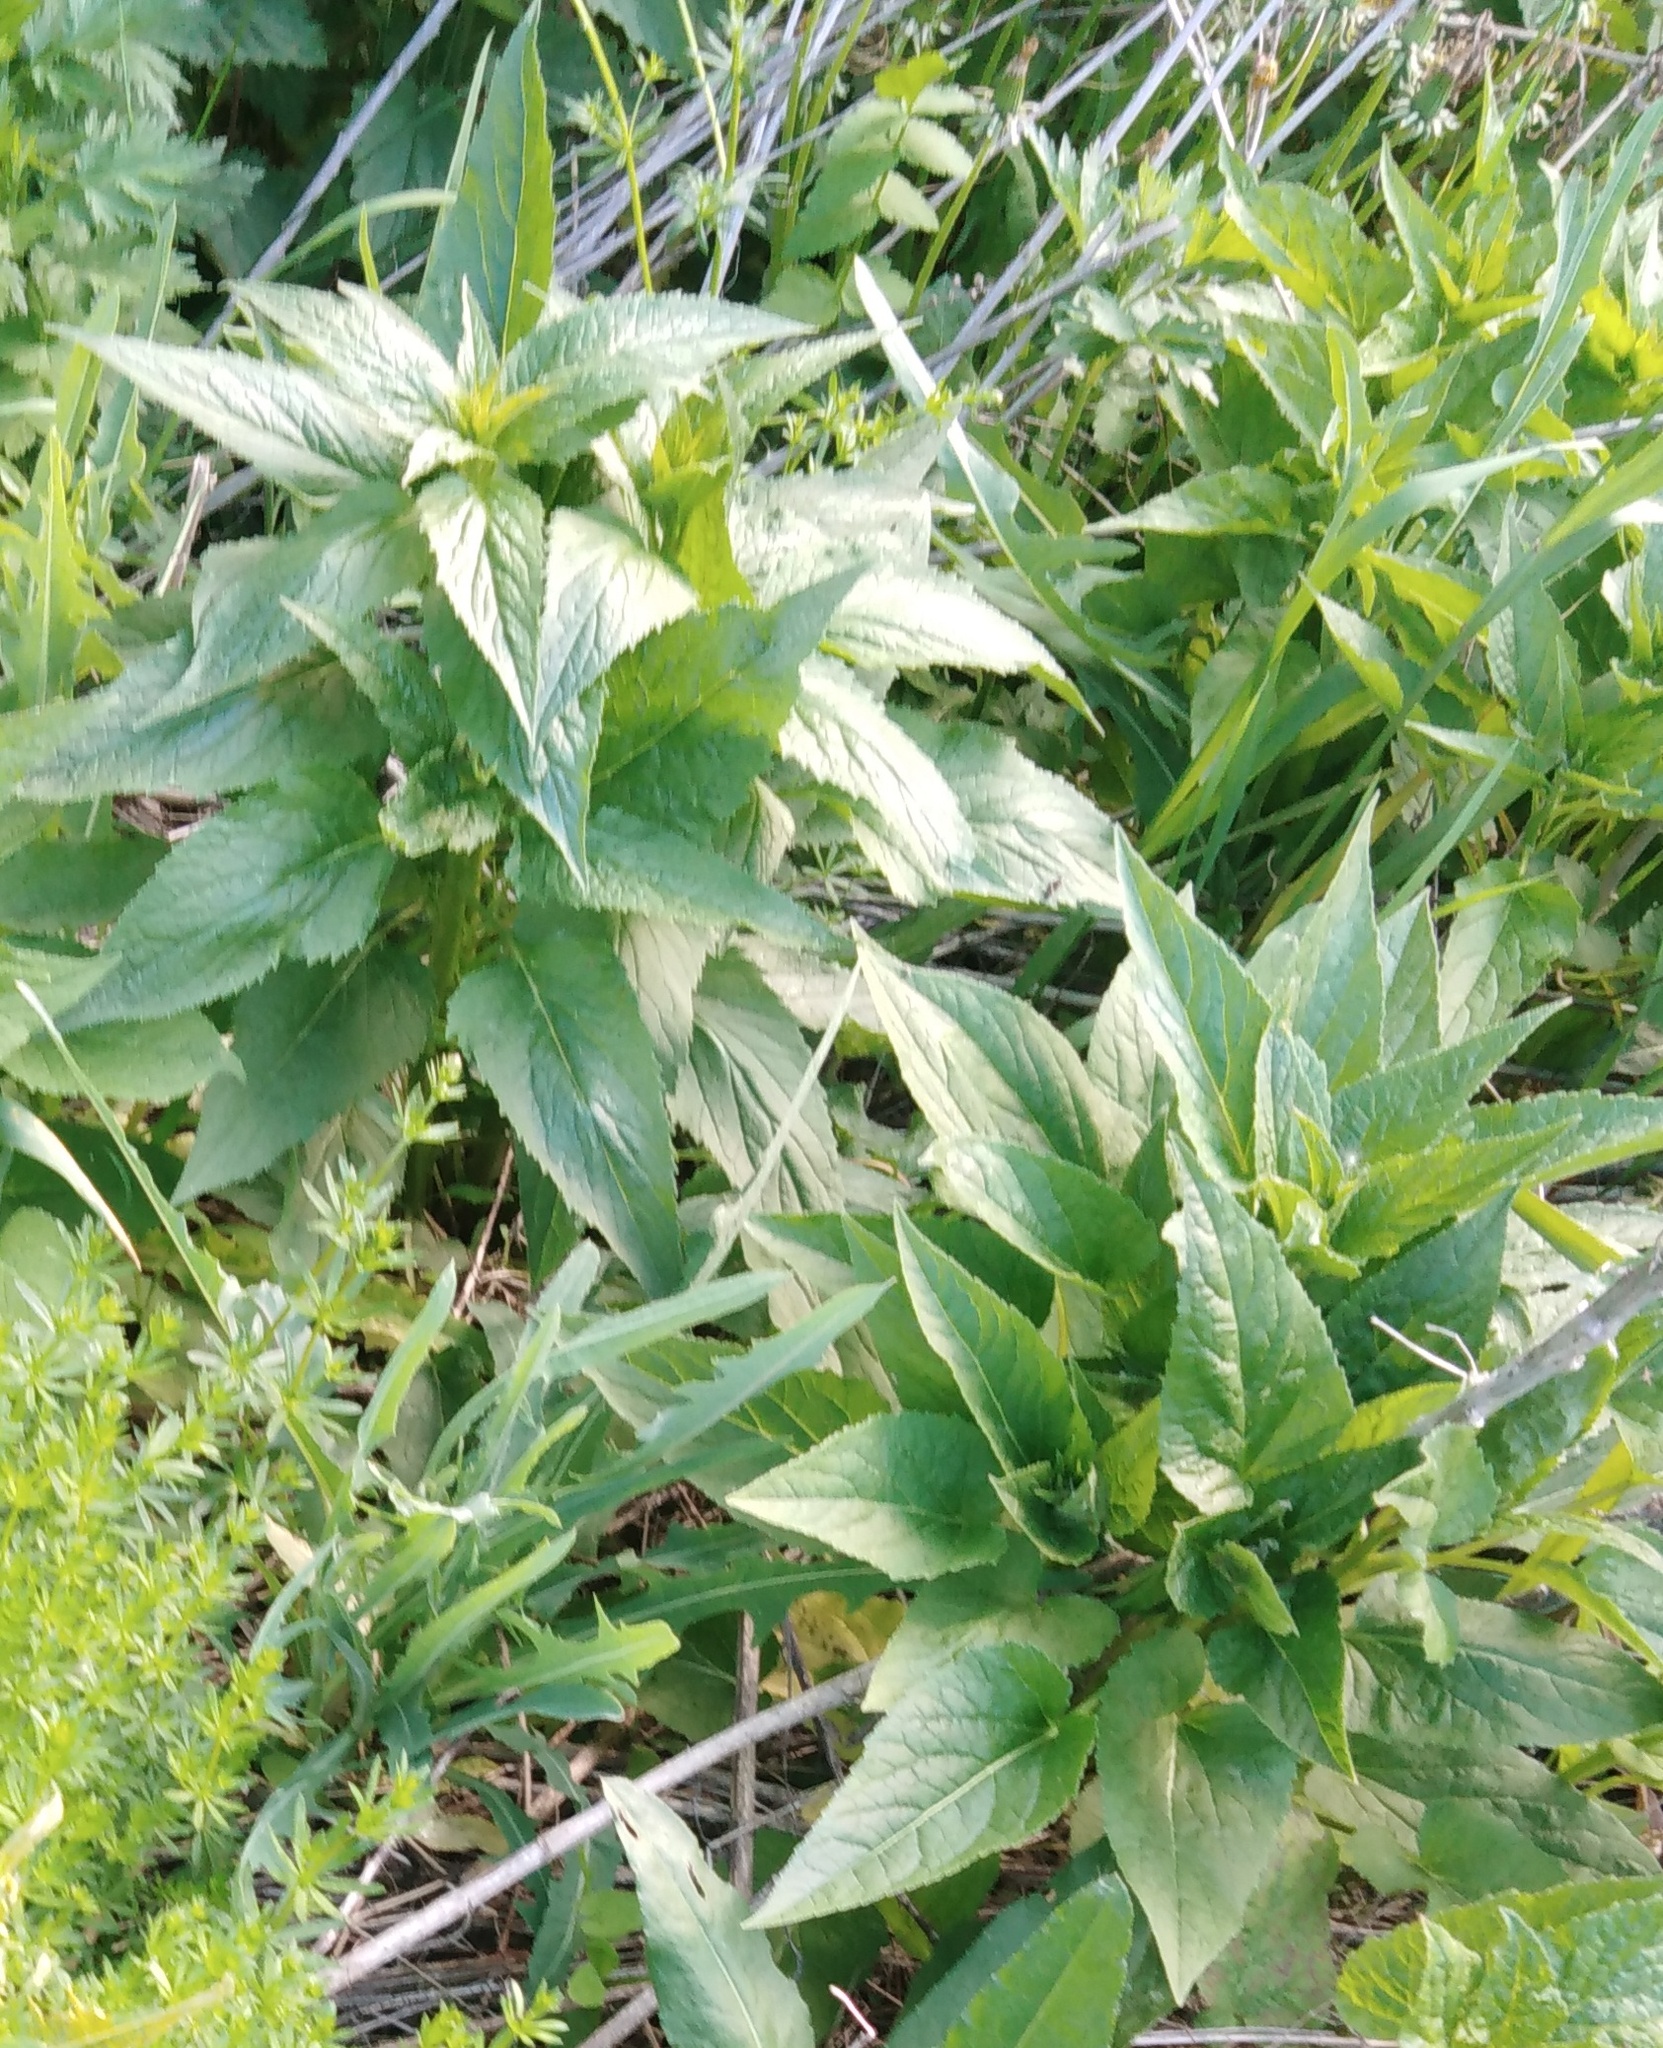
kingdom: Plantae
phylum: Tracheophyta
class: Magnoliopsida
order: Asterales
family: Campanulaceae
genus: Campanula
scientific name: Campanula rapunculoides
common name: Creeping bellflower
